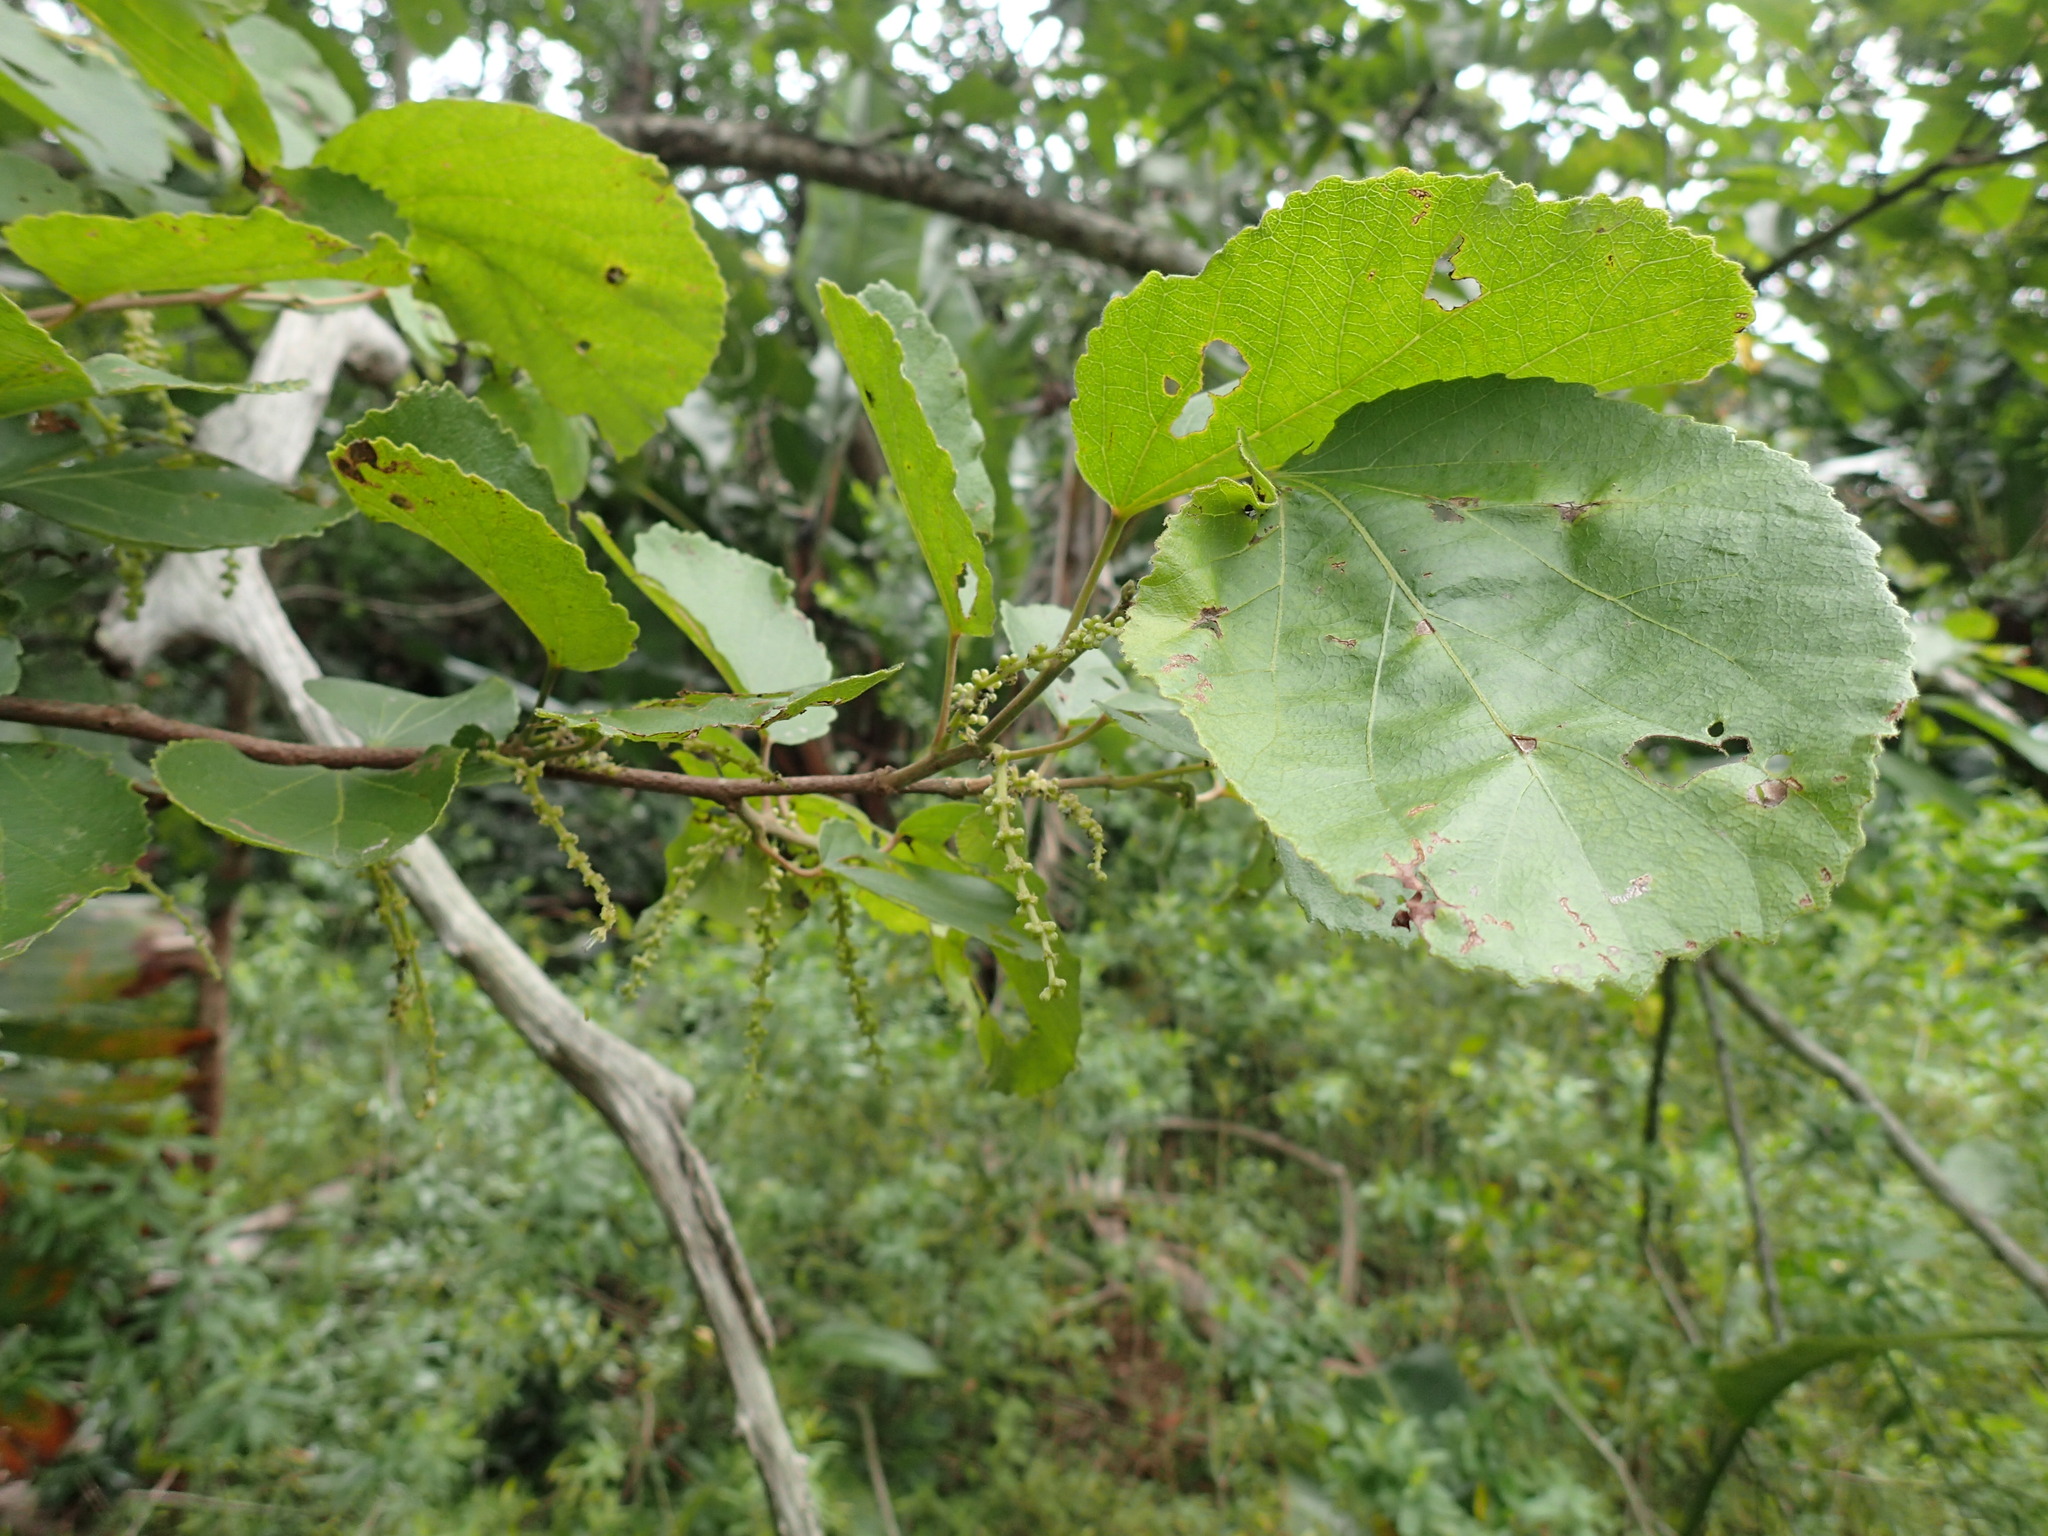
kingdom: Plantae
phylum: Tracheophyta
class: Magnoliopsida
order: Malpighiales
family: Salicaceae
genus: Trimeria
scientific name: Trimeria grandifolia
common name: Wild mulberry
